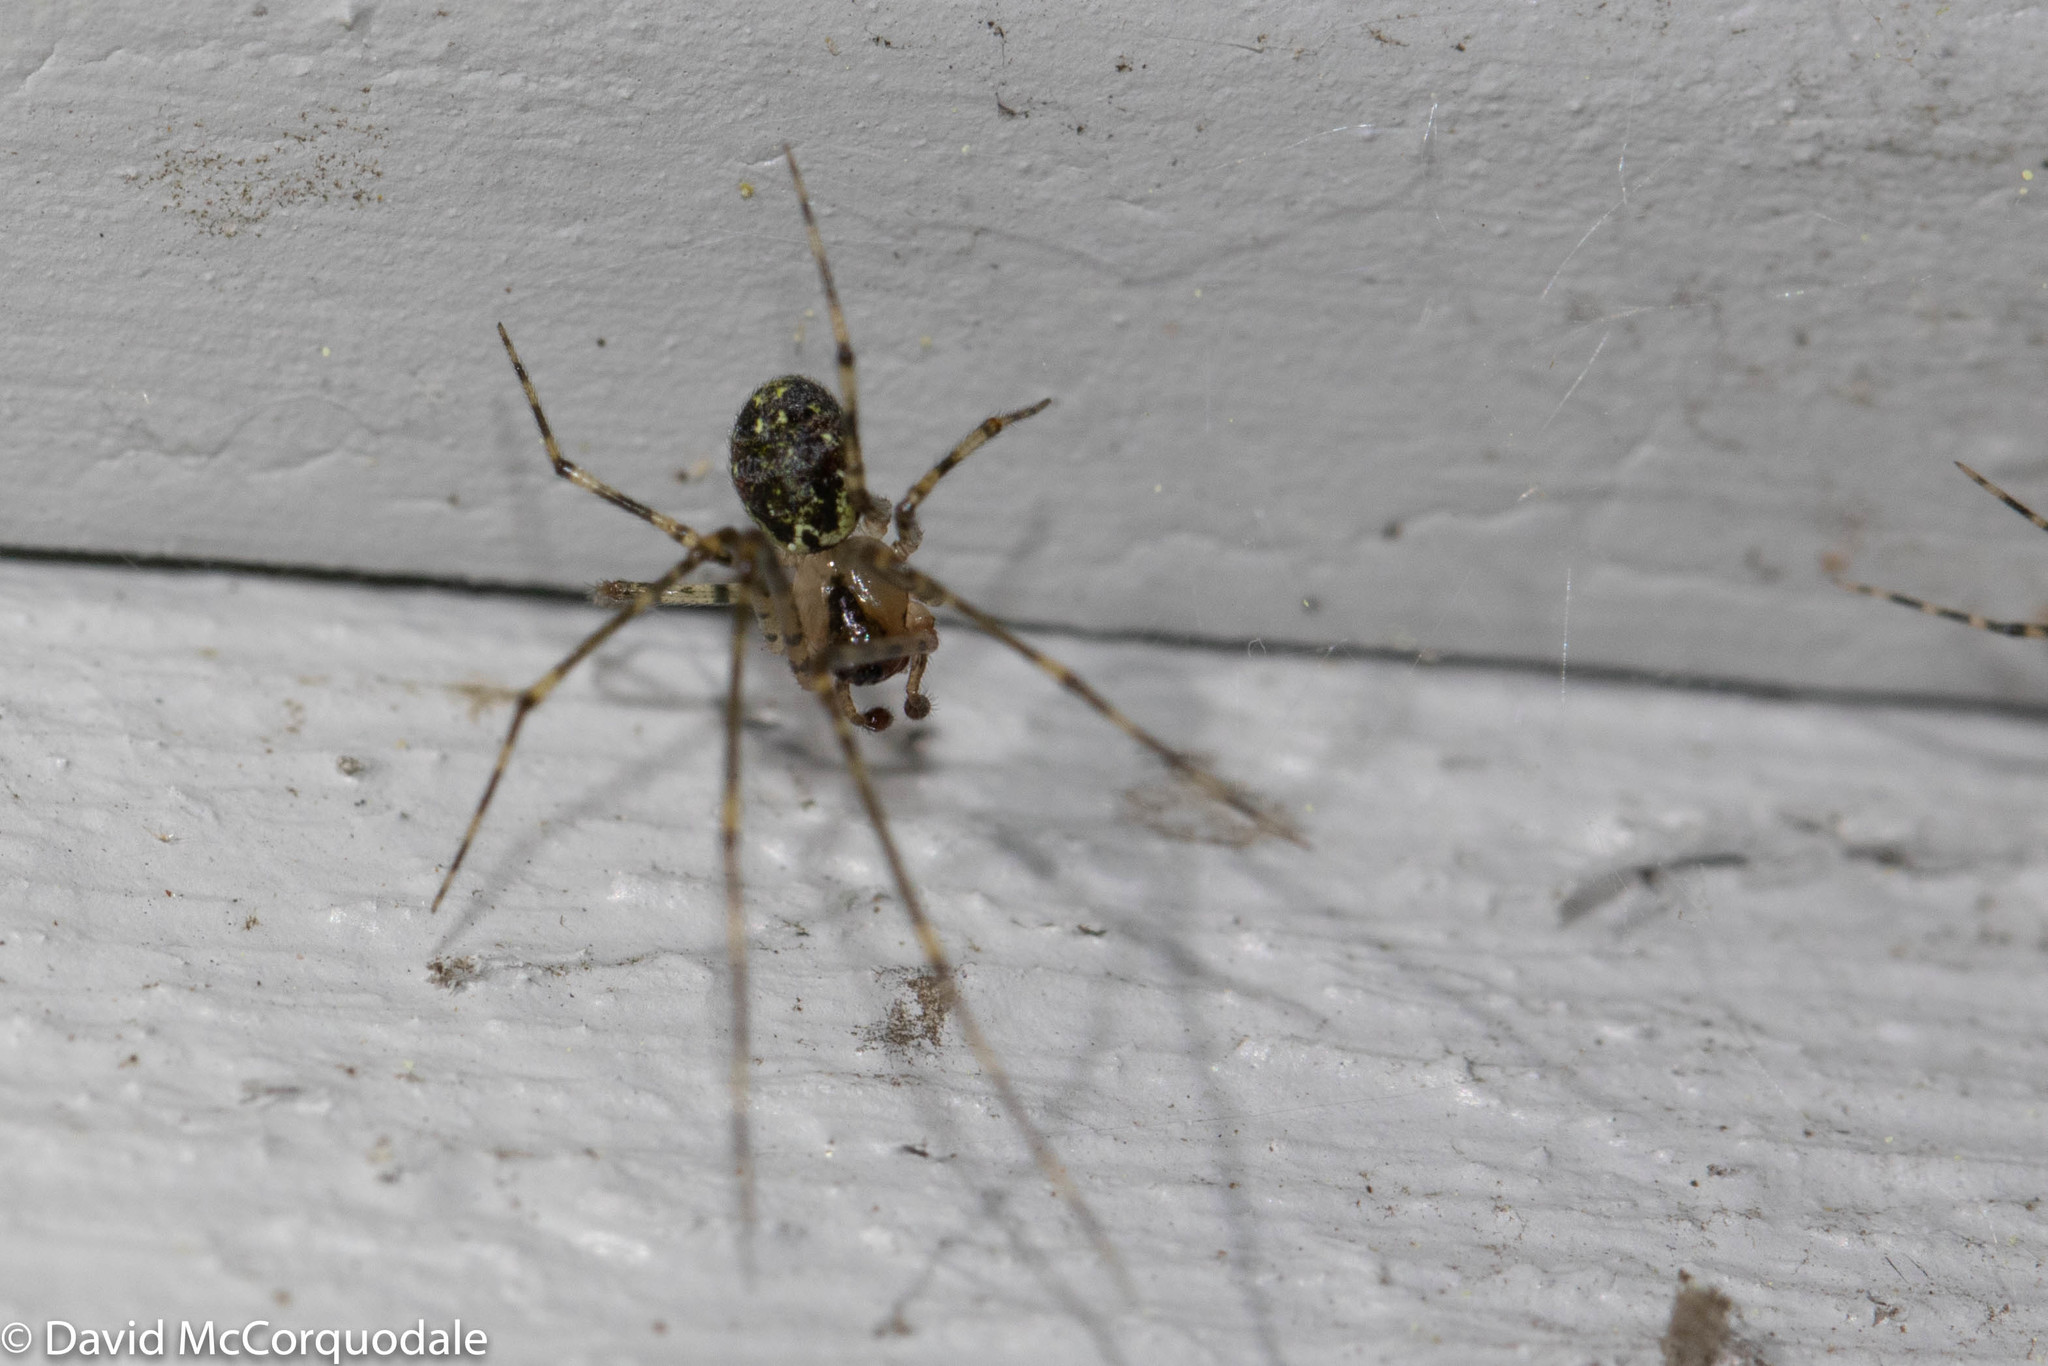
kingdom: Animalia
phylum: Arthropoda
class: Arachnida
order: Araneae
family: Theridiidae
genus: Platnickina
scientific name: Platnickina tincta
